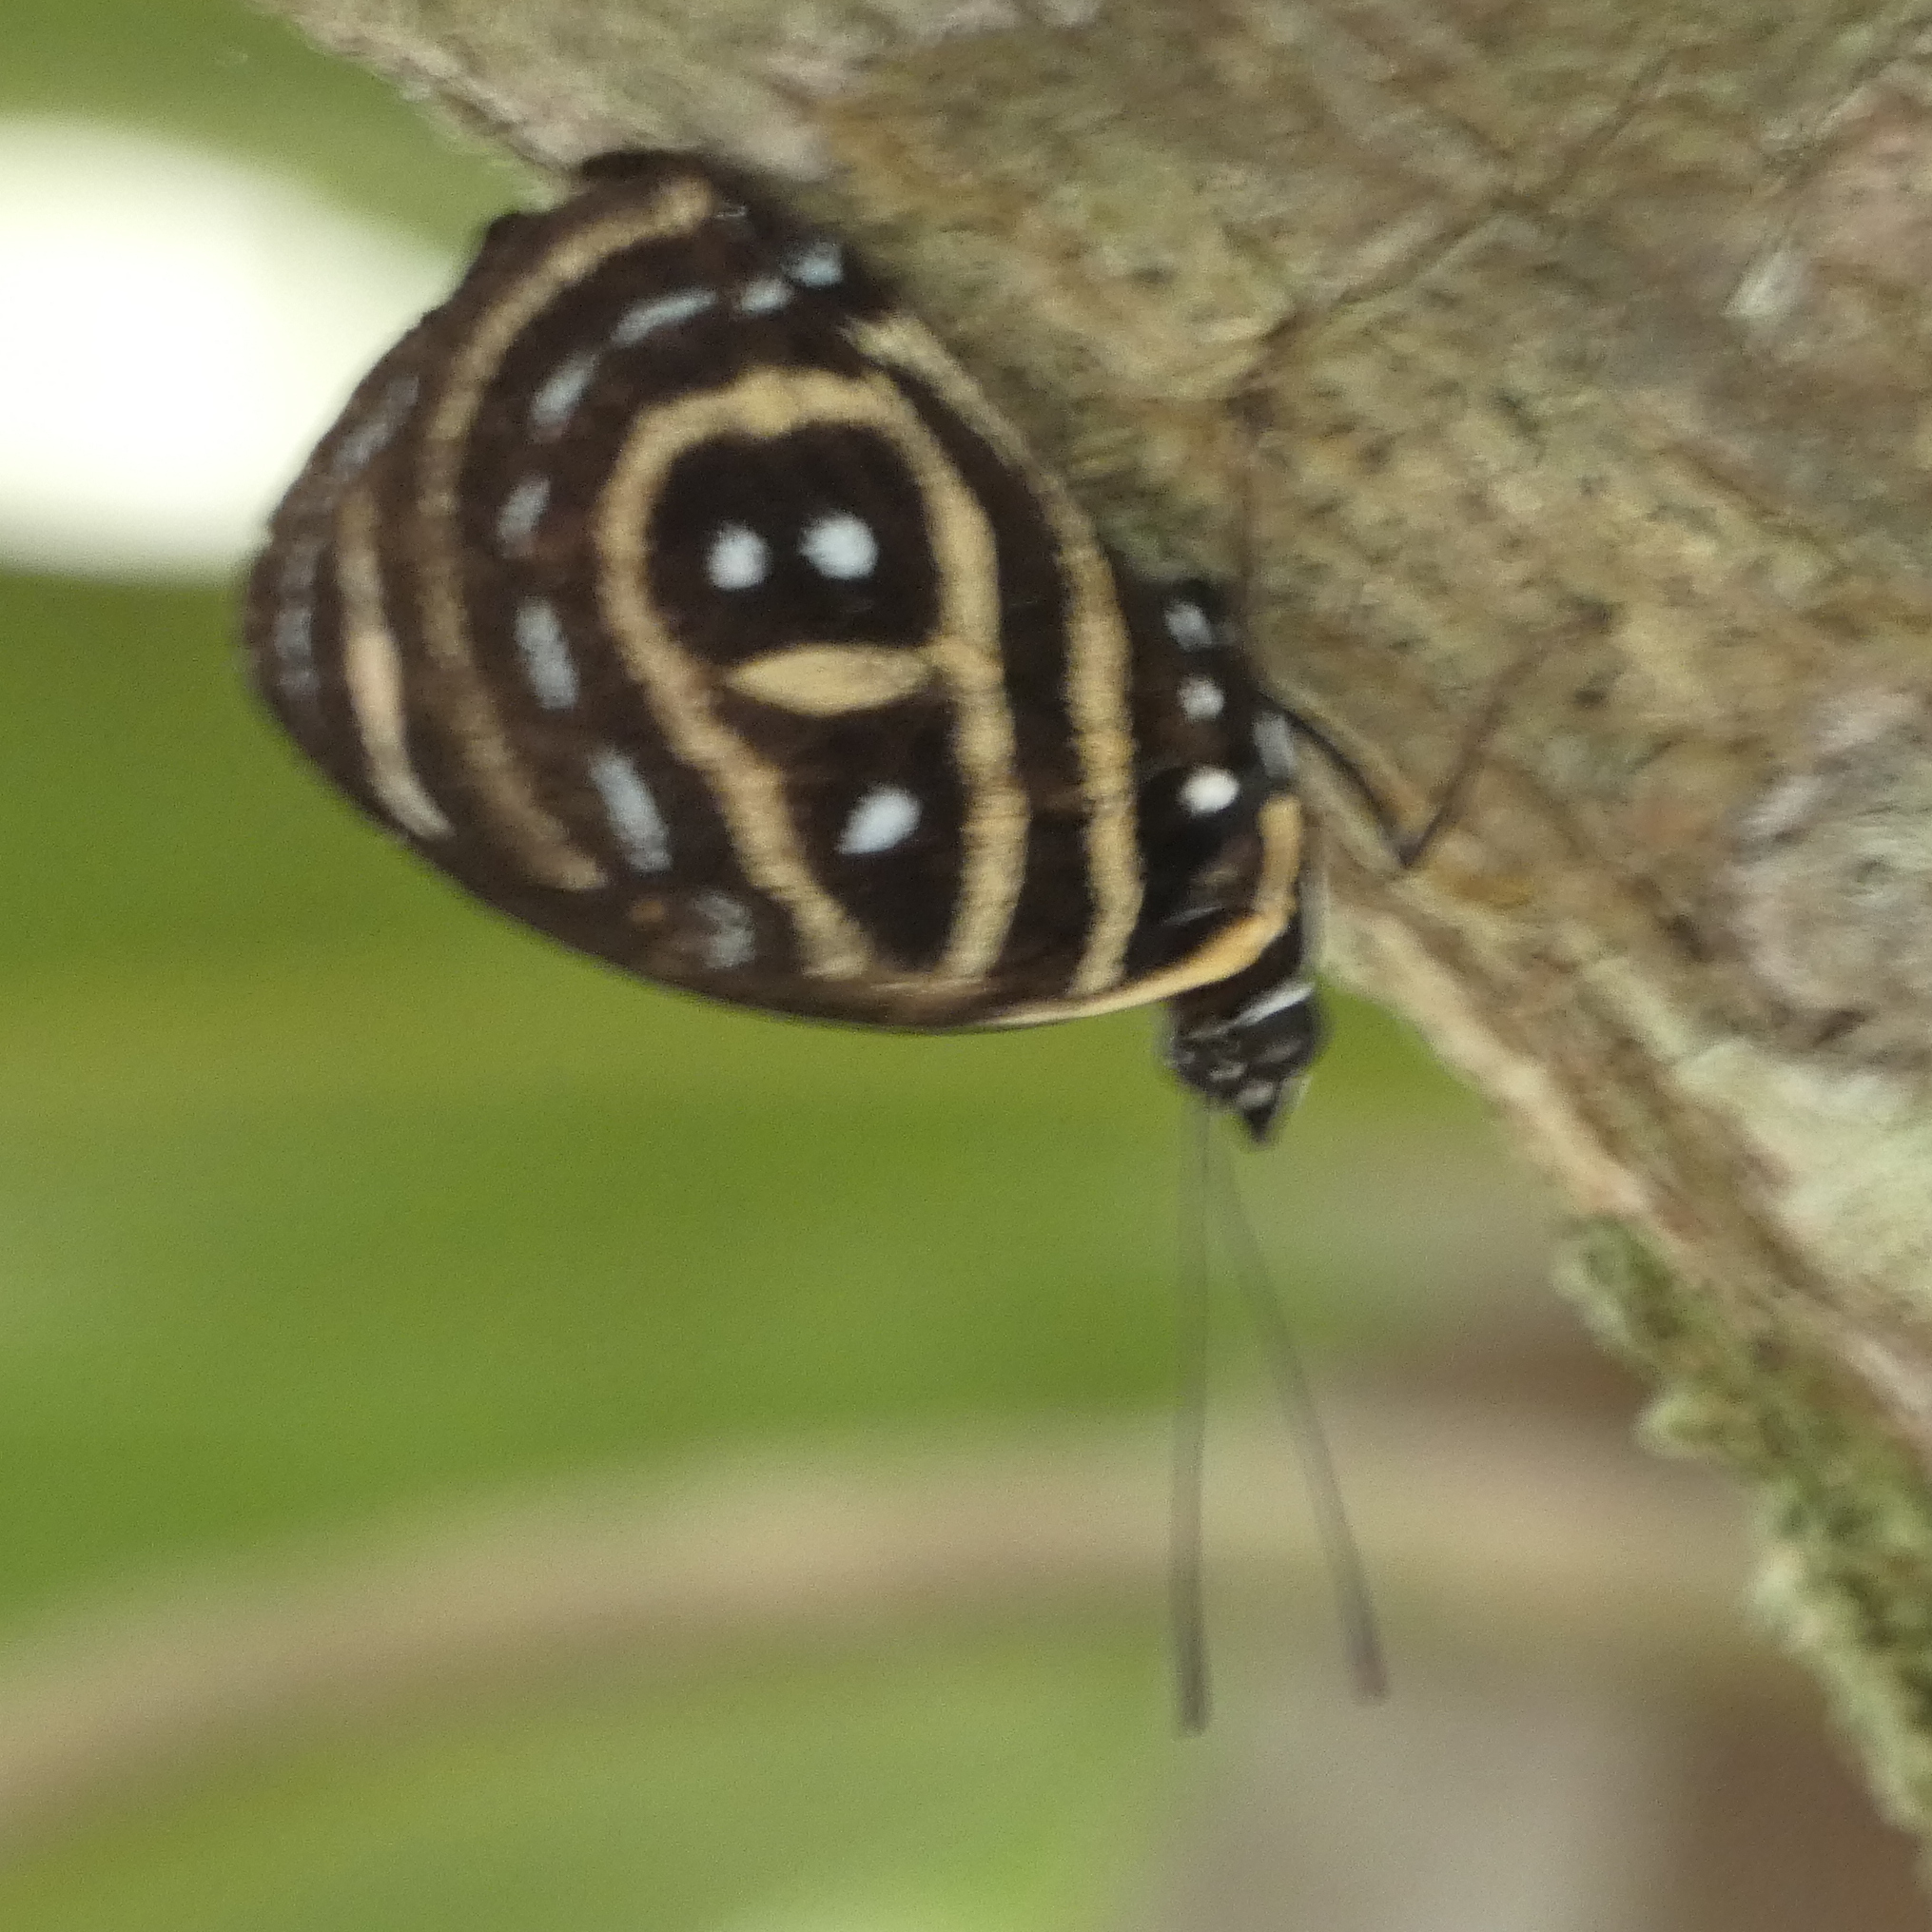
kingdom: Animalia
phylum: Arthropoda
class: Insecta
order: Lepidoptera
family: Nymphalidae
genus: Catagramma
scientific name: Catagramma astarte
